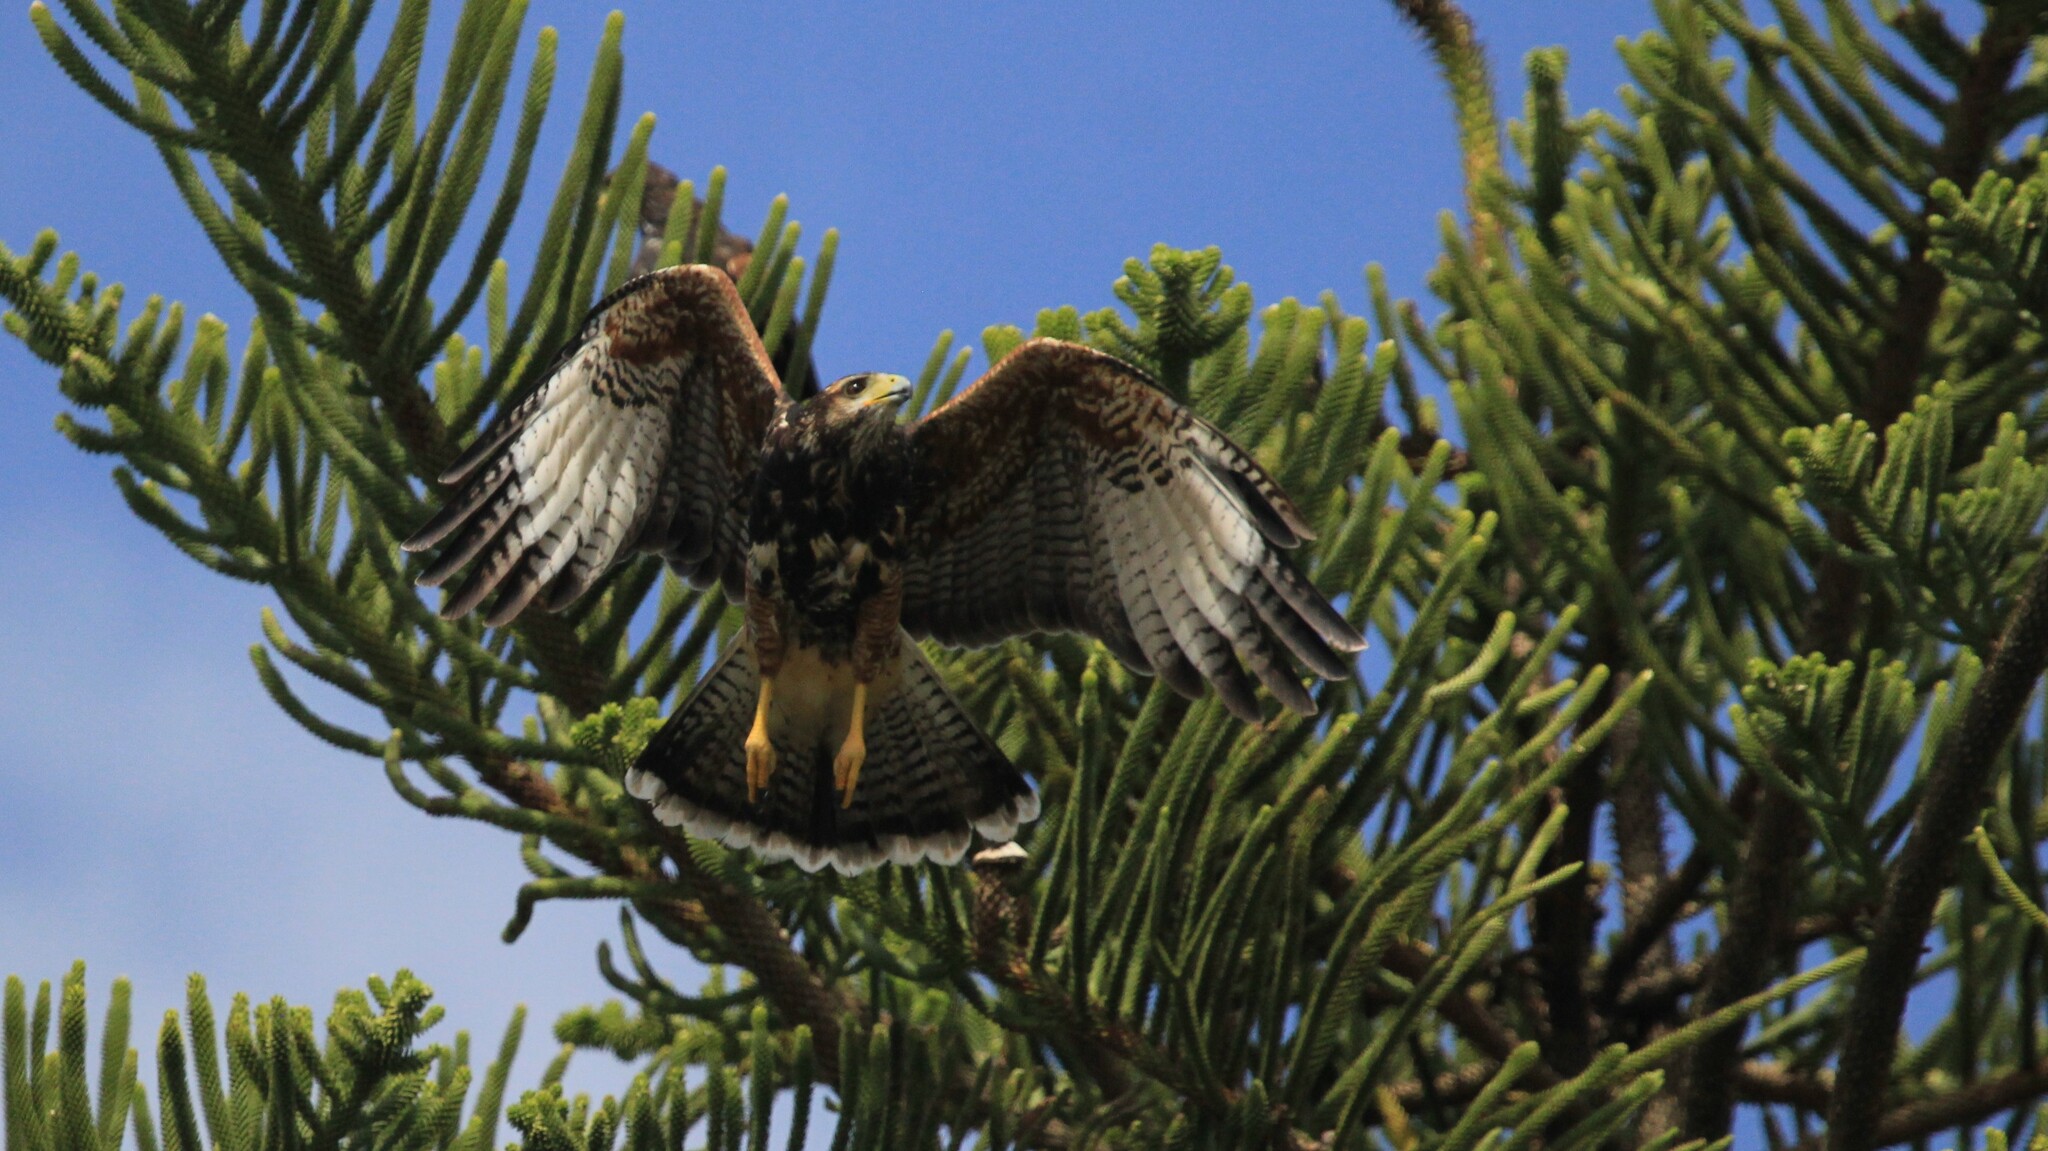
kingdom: Animalia
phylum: Chordata
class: Aves
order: Accipitriformes
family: Accipitridae
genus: Parabuteo
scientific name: Parabuteo unicinctus
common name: Harris's hawk
